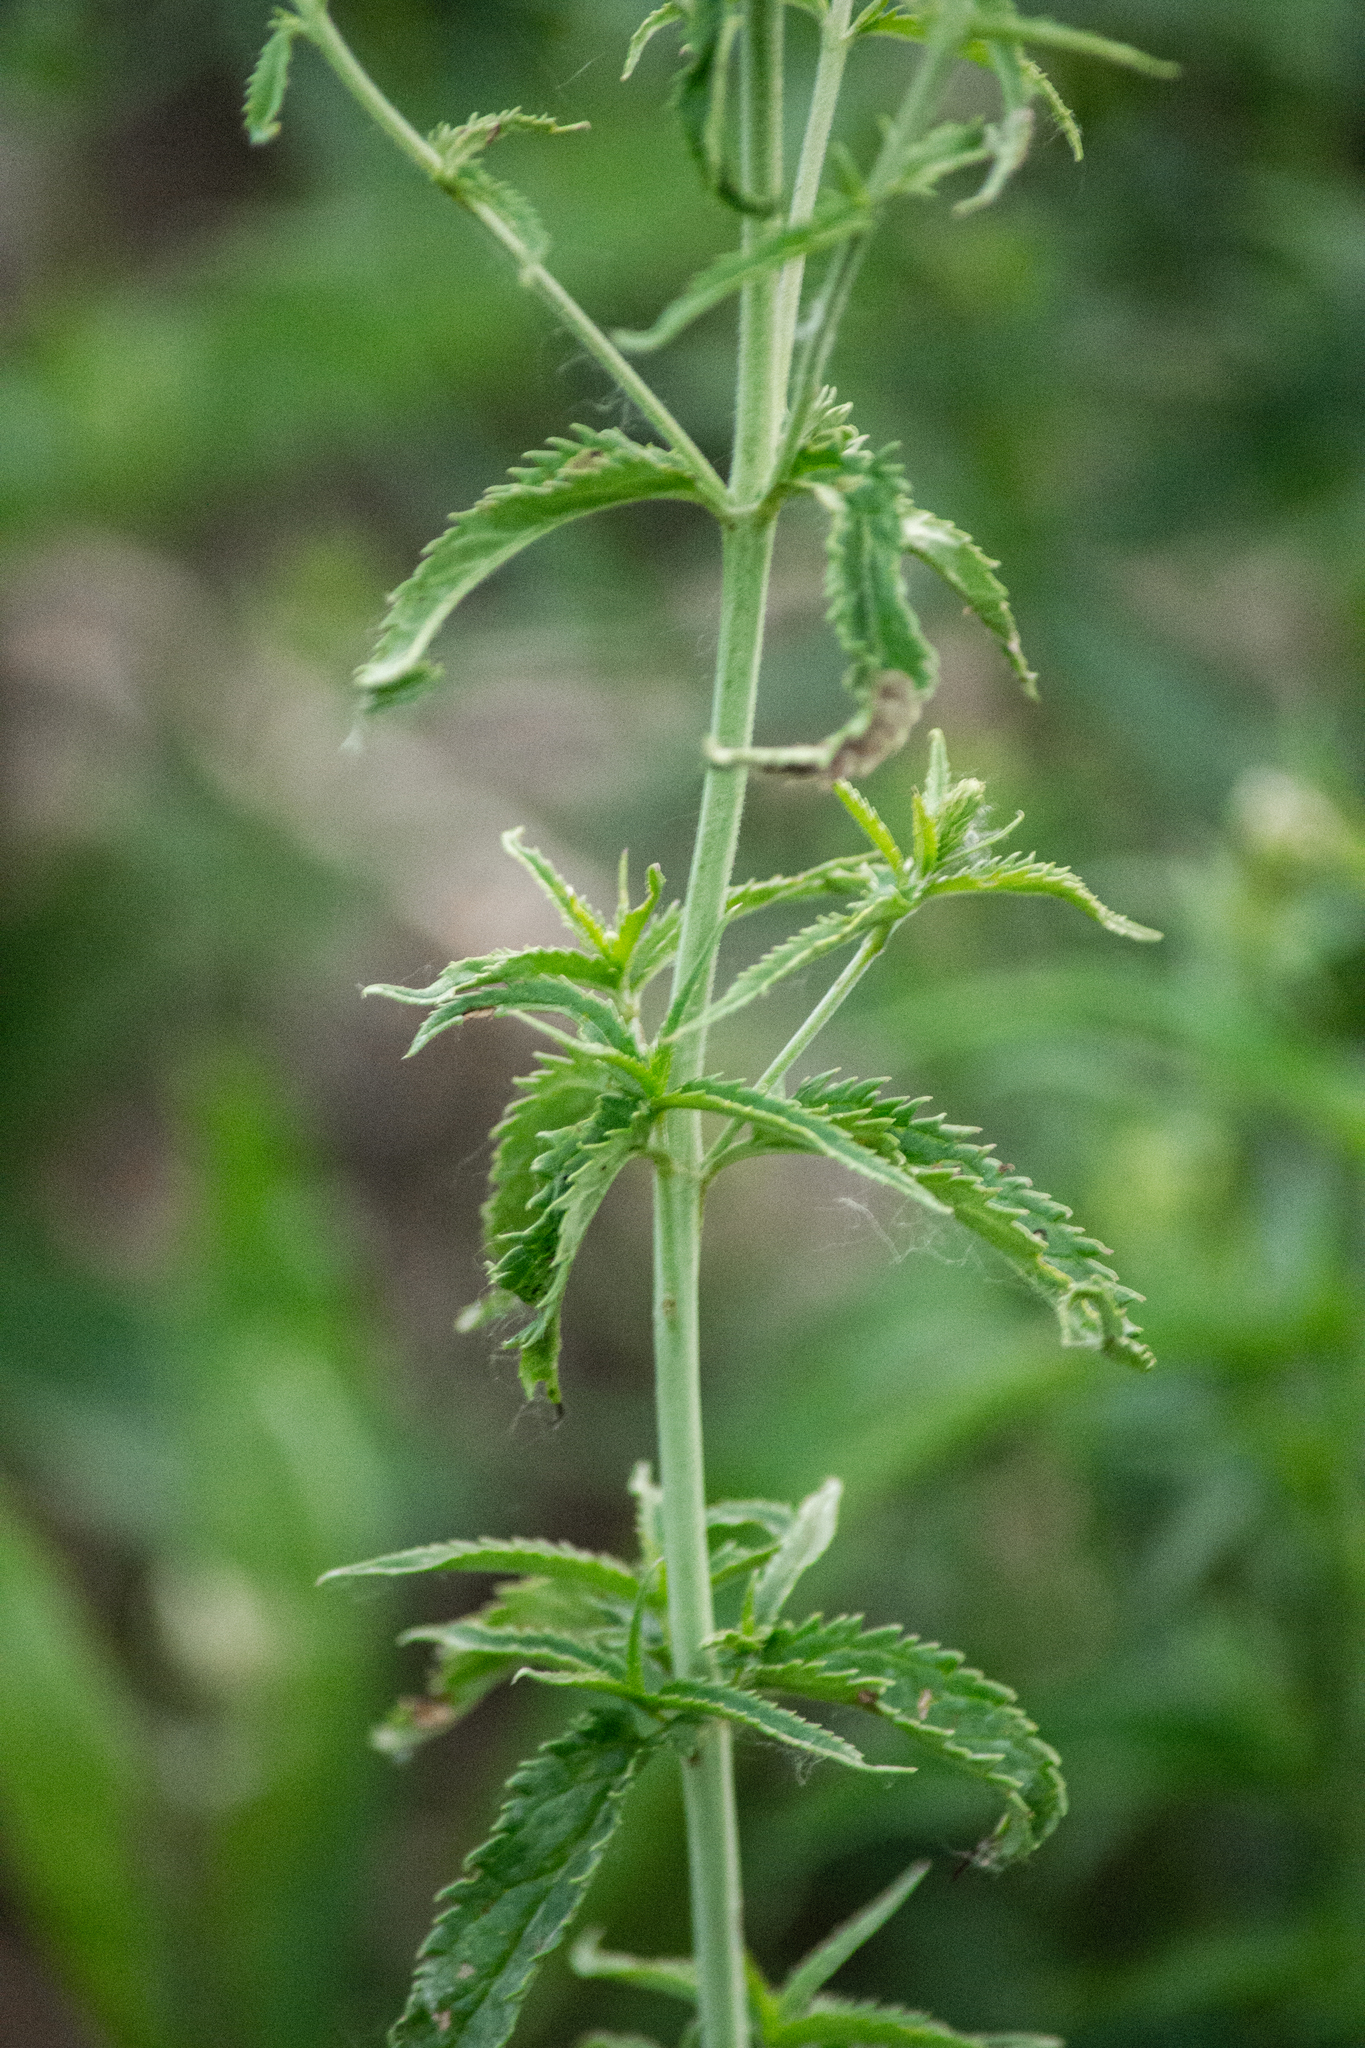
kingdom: Plantae
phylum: Tracheophyta
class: Magnoliopsida
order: Lamiales
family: Plantaginaceae
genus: Veronica
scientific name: Veronica longifolia
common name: Garden speedwell
